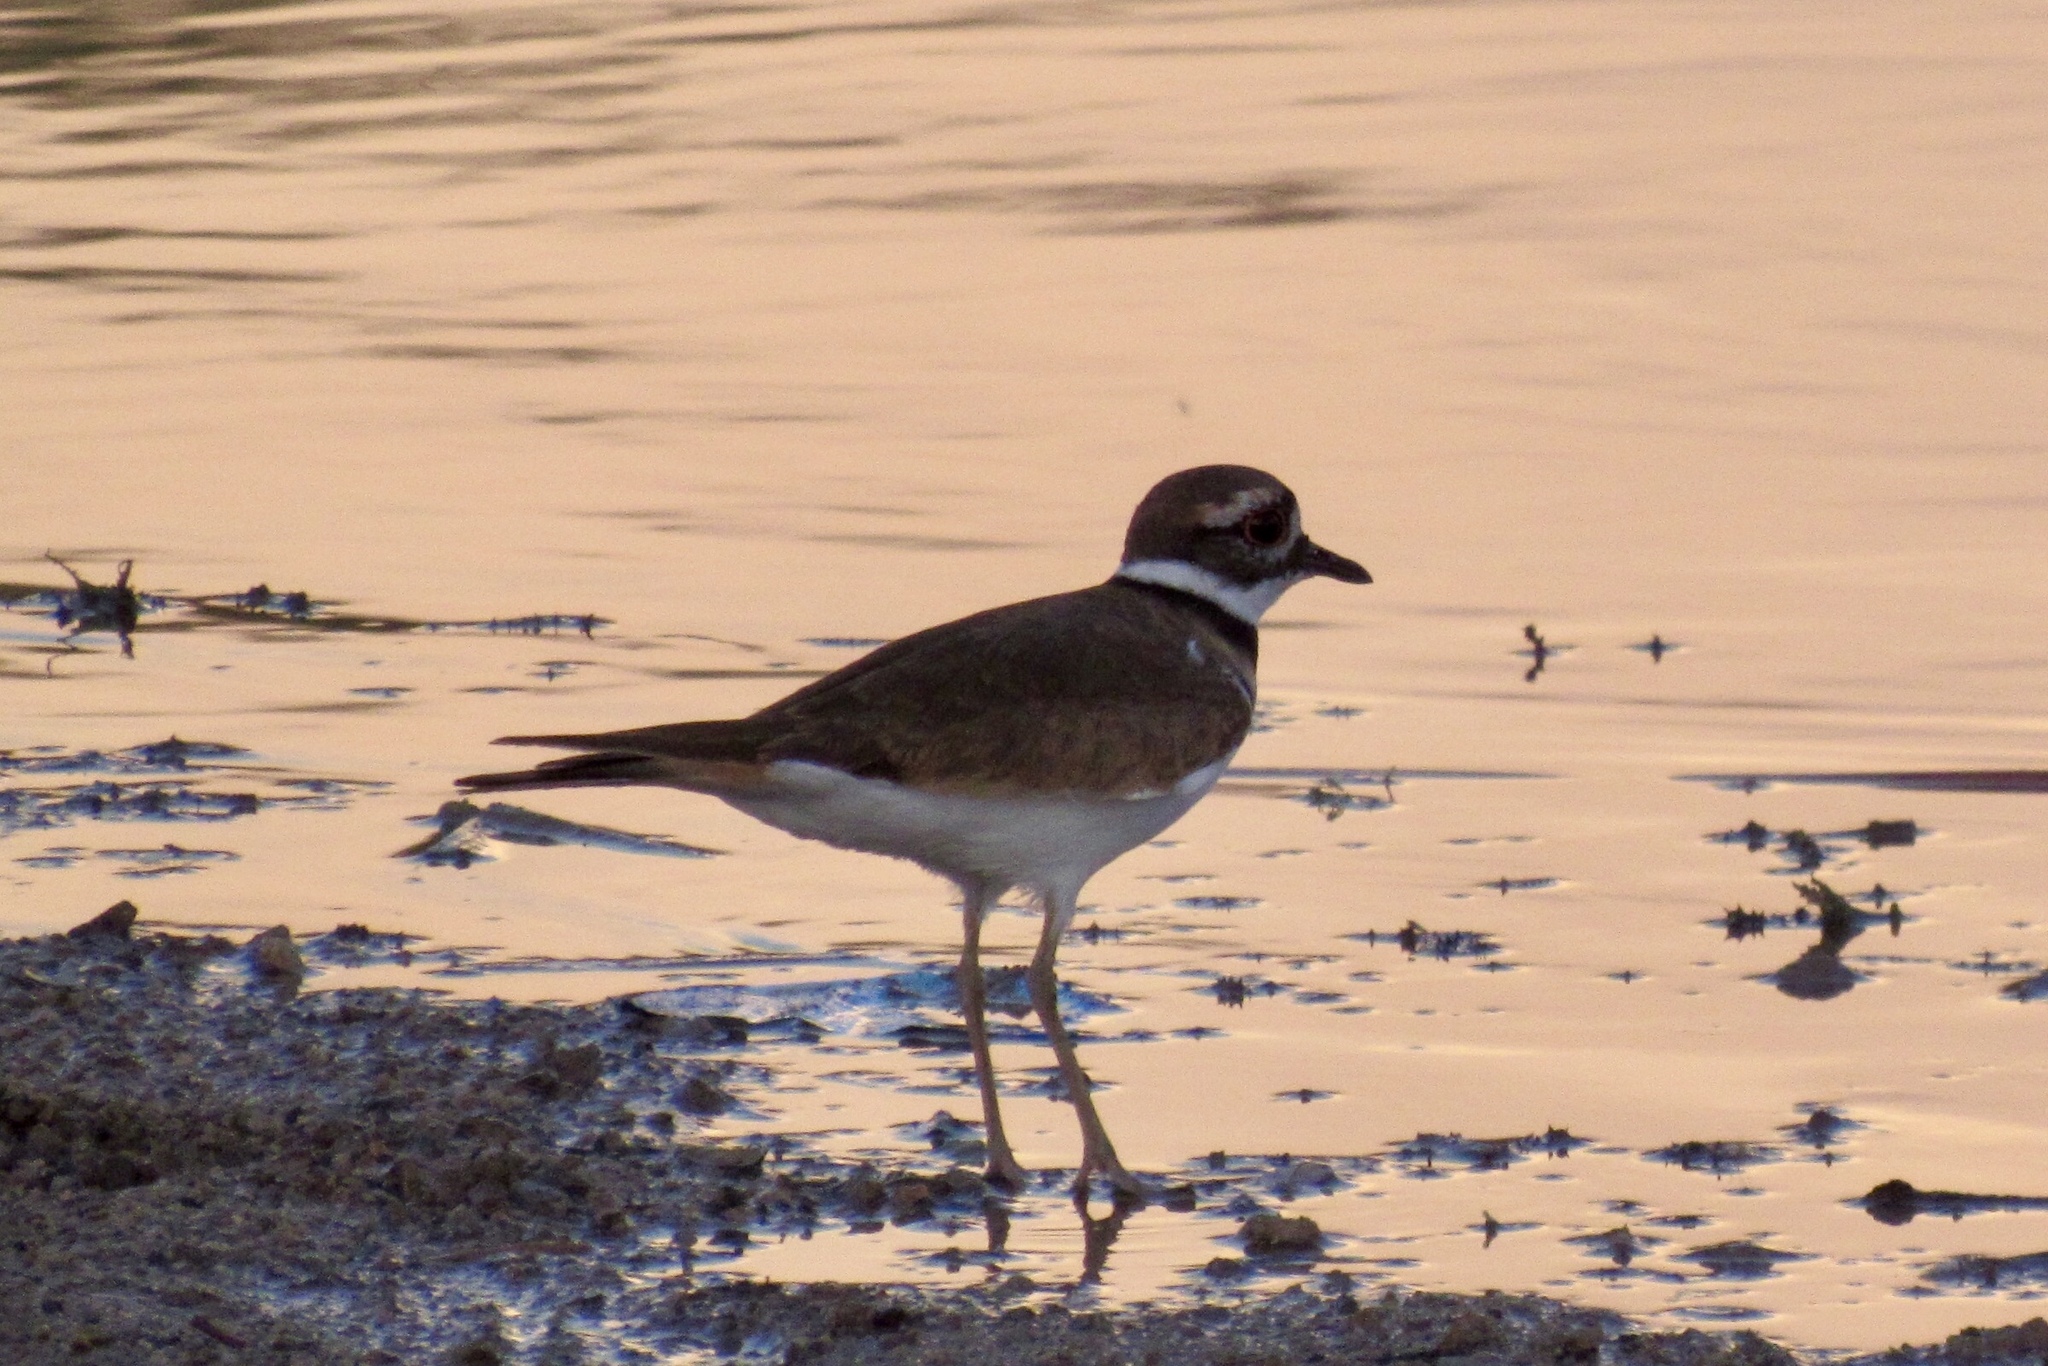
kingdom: Animalia
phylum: Chordata
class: Aves
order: Charadriiformes
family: Charadriidae
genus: Charadrius
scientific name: Charadrius vociferus
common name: Killdeer
